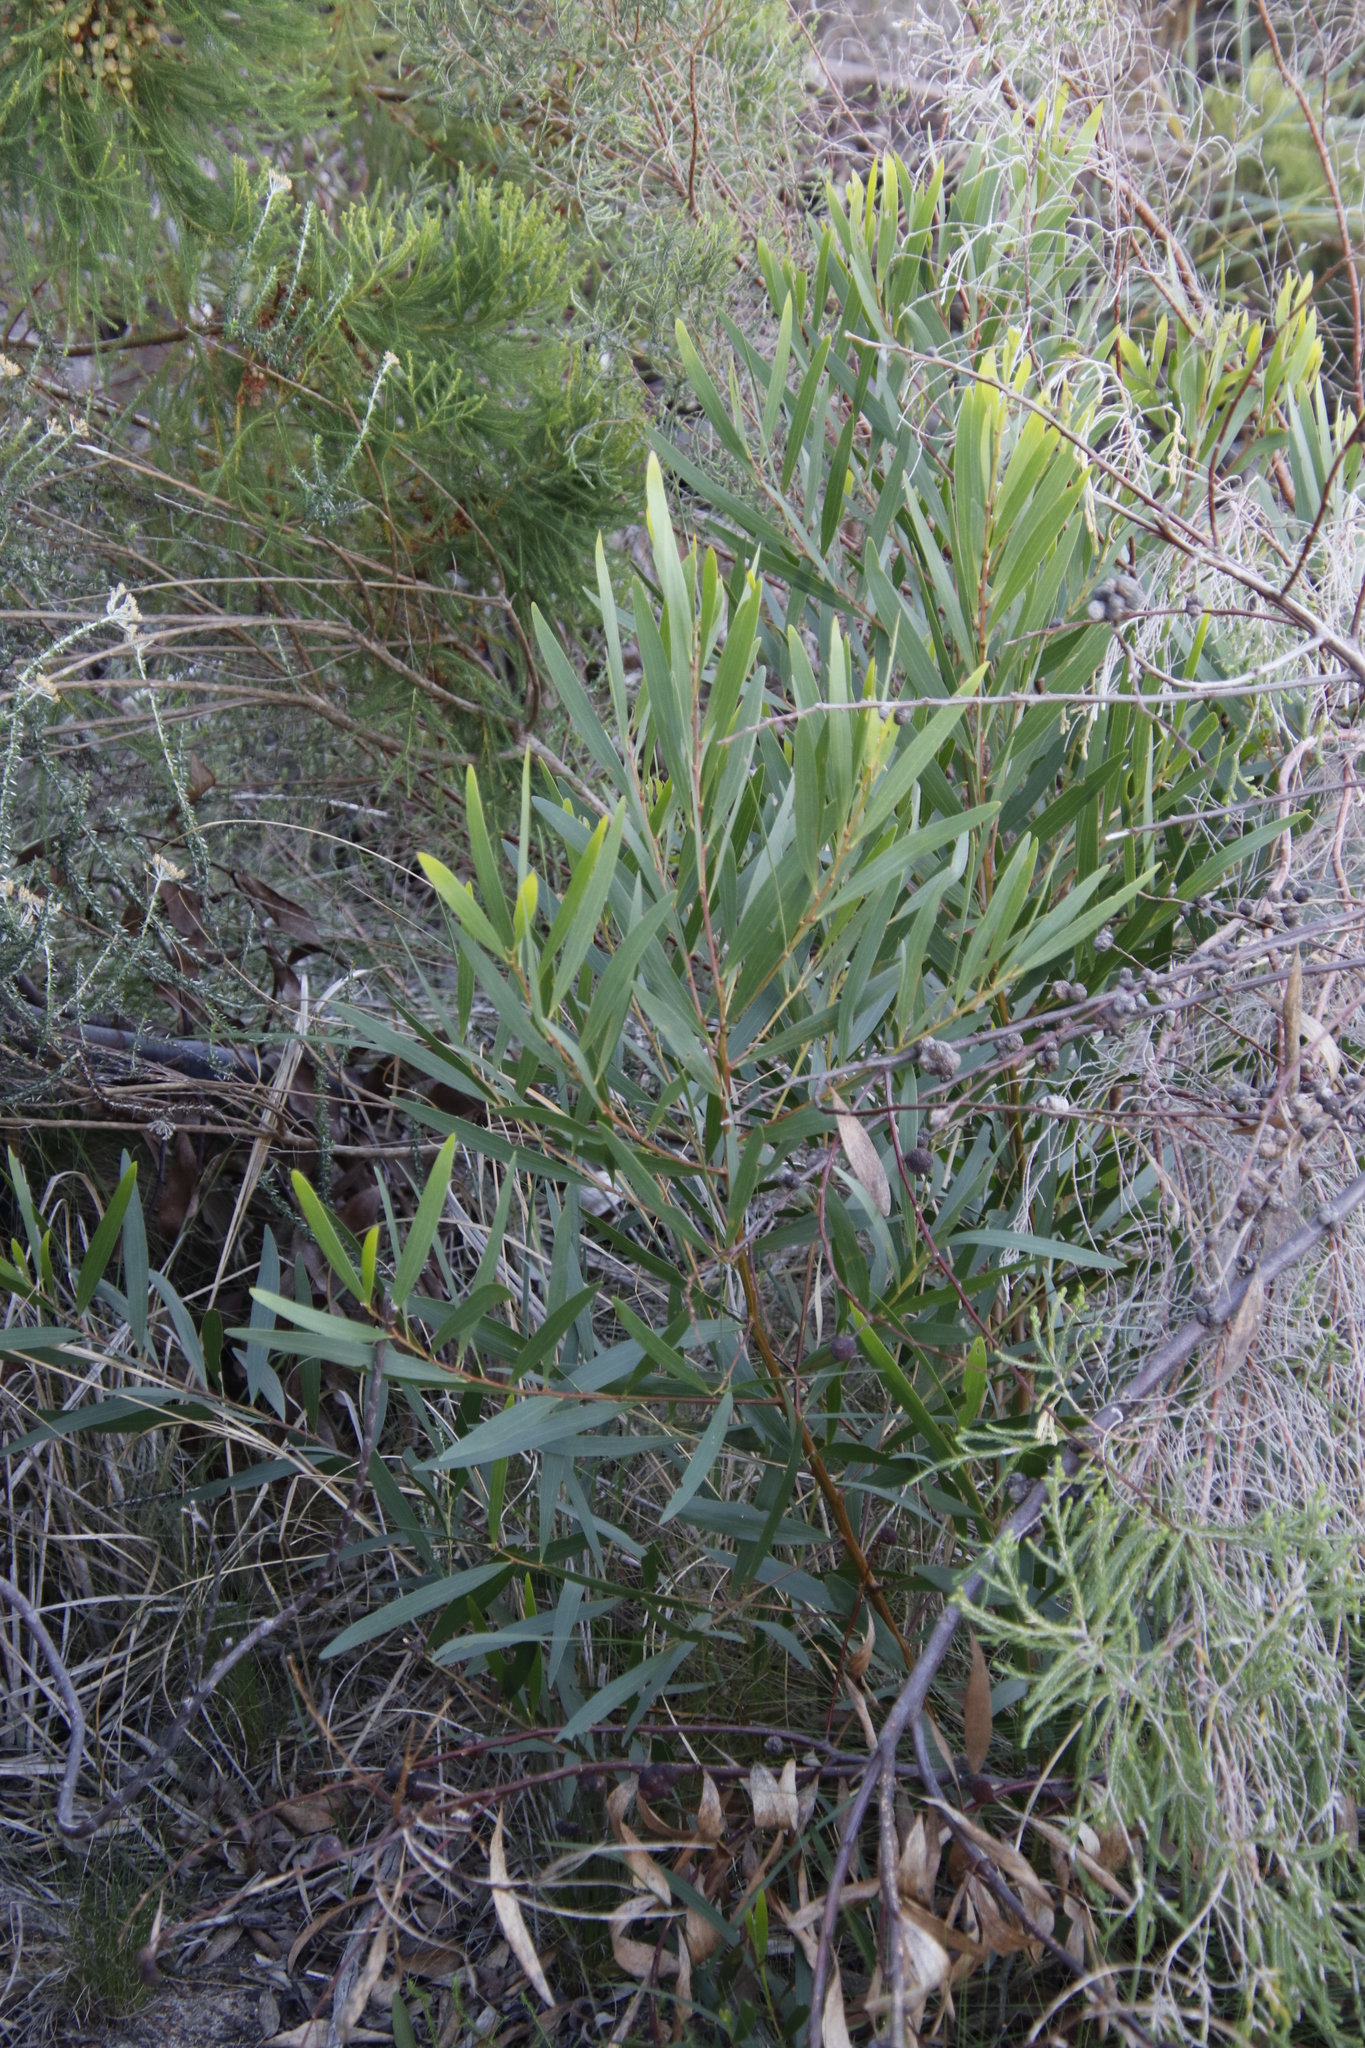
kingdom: Plantae
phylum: Tracheophyta
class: Magnoliopsida
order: Fabales
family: Fabaceae
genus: Acacia
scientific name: Acacia longifolia
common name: Sydney golden wattle
